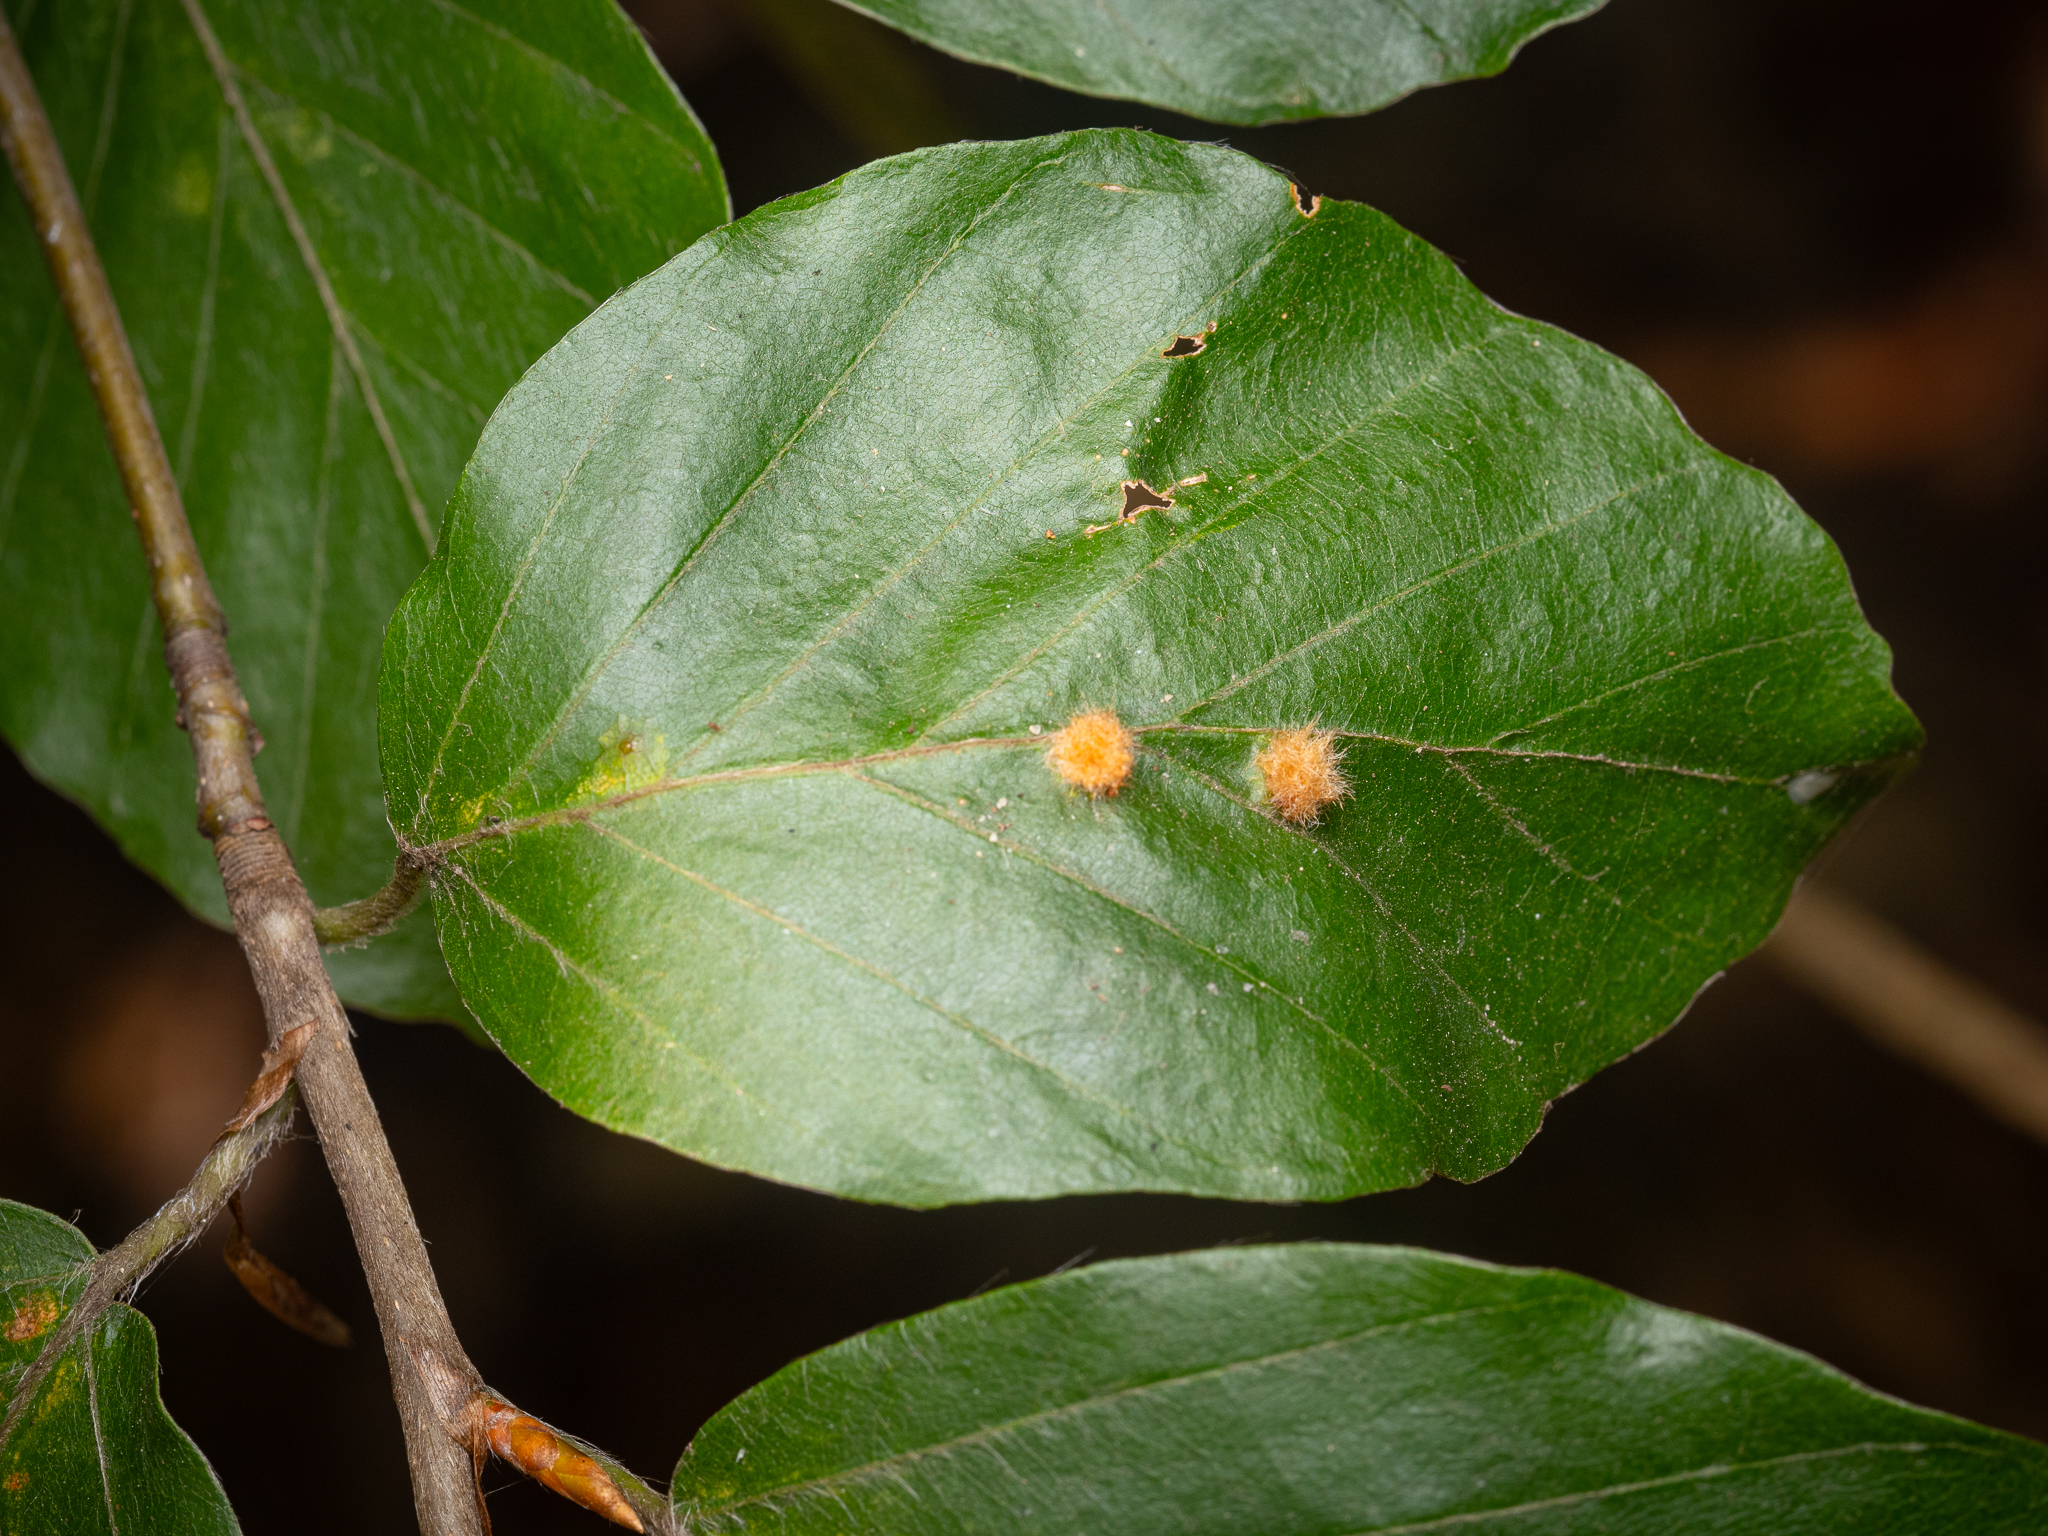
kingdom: Plantae
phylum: Tracheophyta
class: Magnoliopsida
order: Fagales
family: Fagaceae
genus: Fagus
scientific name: Fagus sylvatica
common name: Beech
